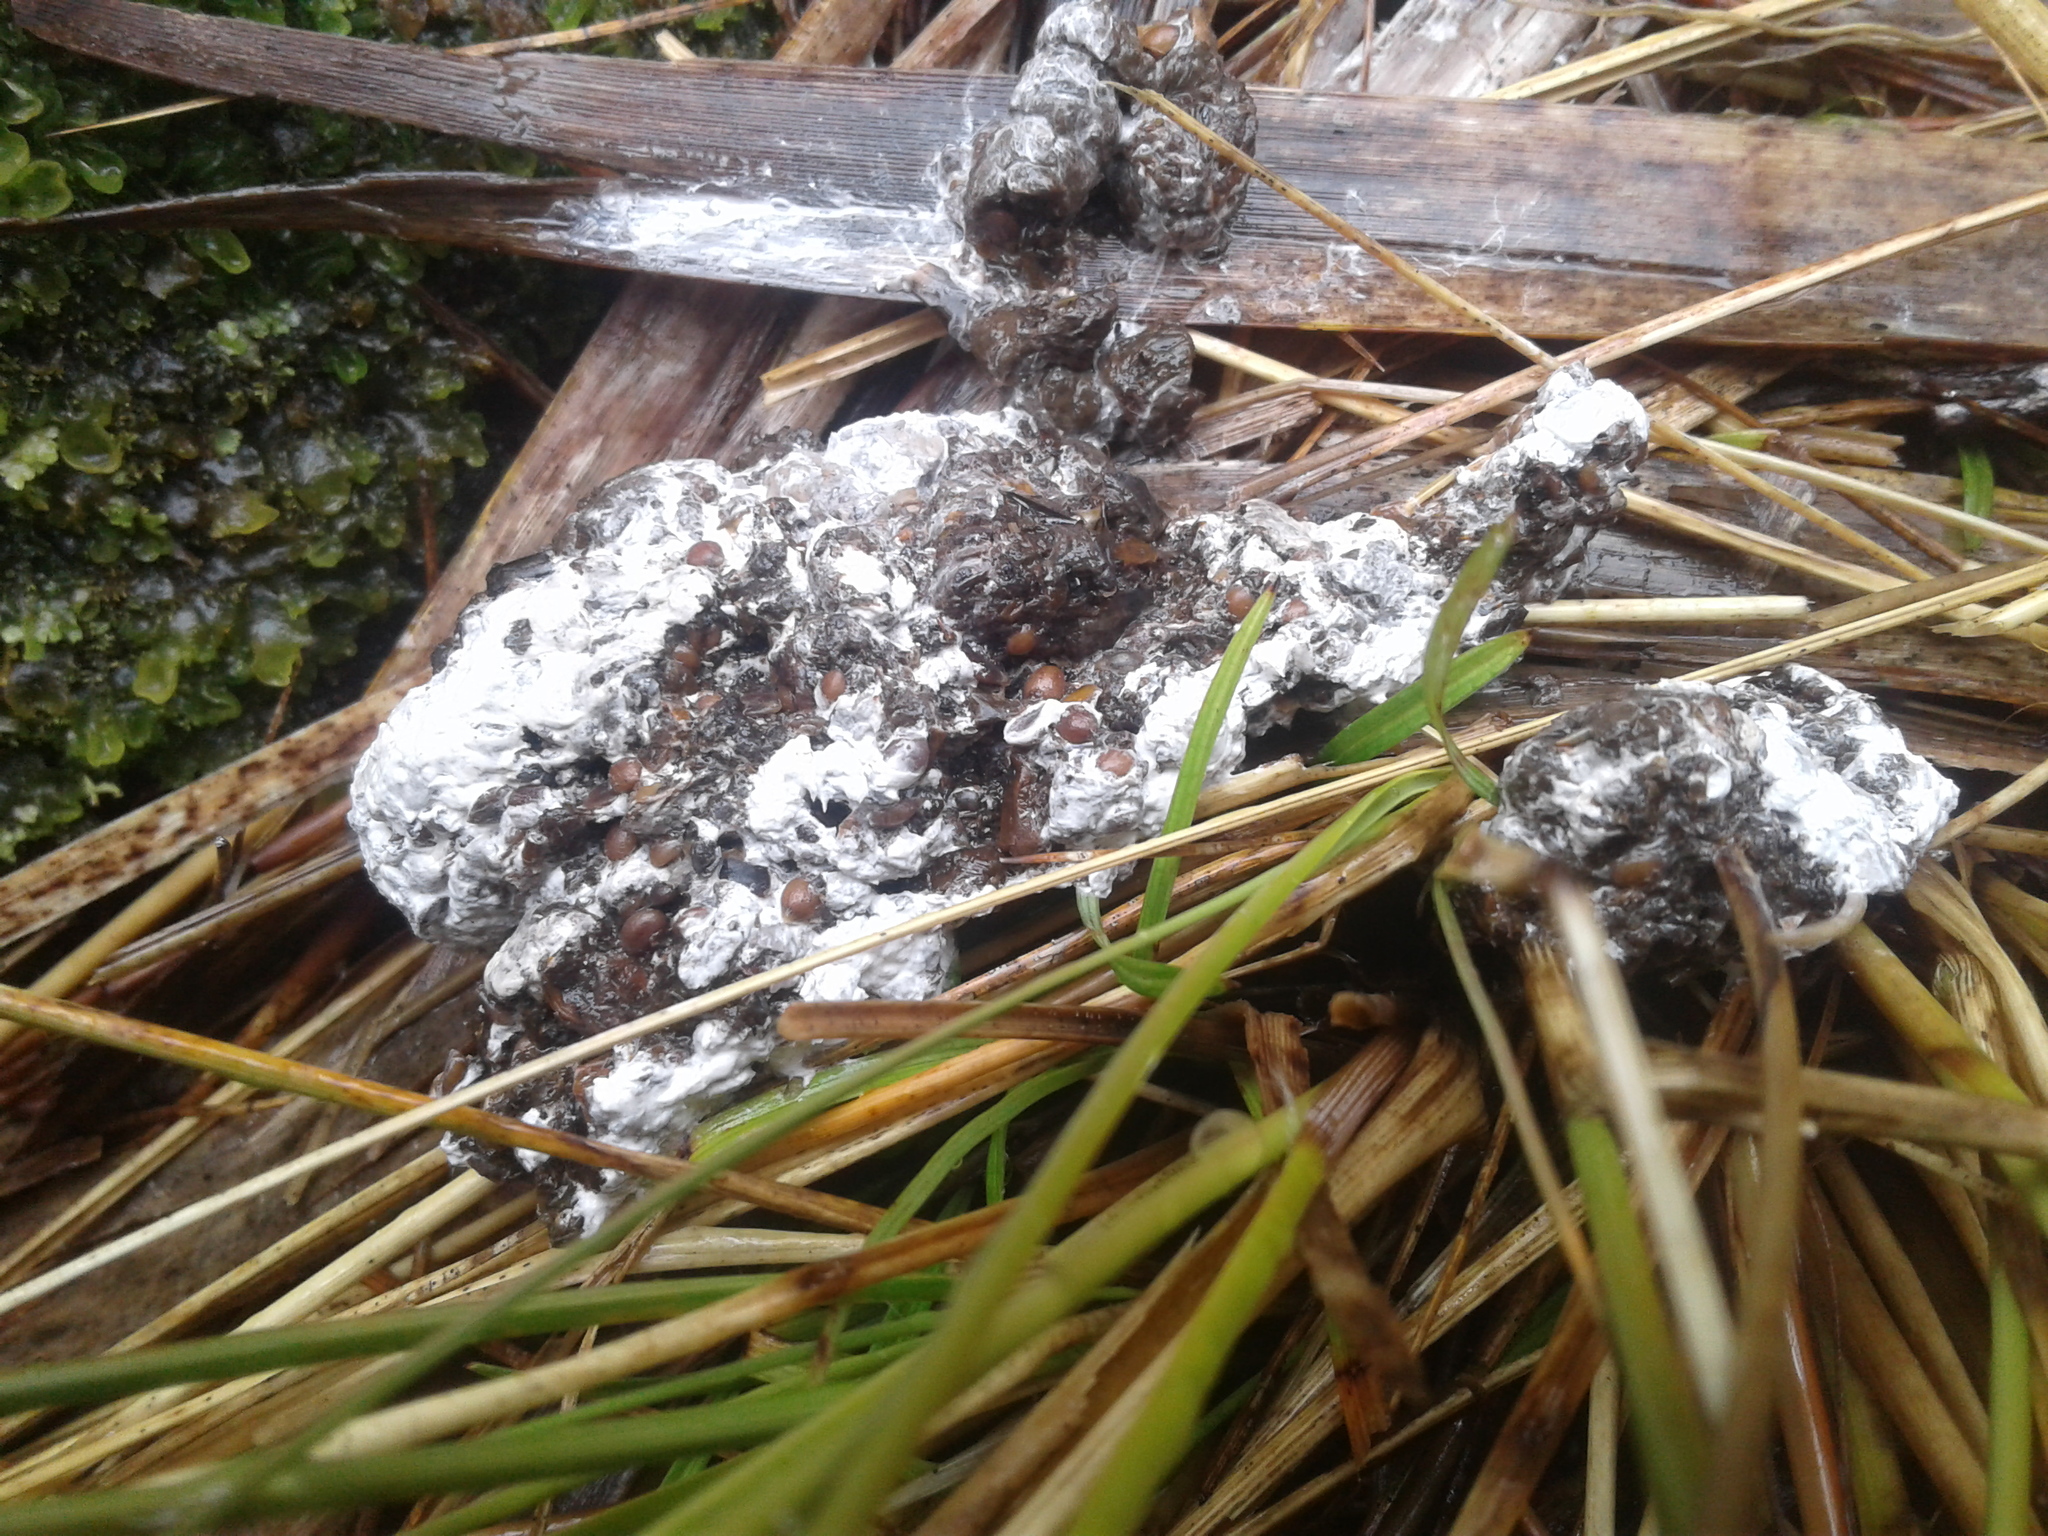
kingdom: Animalia
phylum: Chordata
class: Aves
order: Apterygiformes
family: Apterygidae
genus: Apteryx
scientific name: Apteryx haastii
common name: Great spotted kiwi
